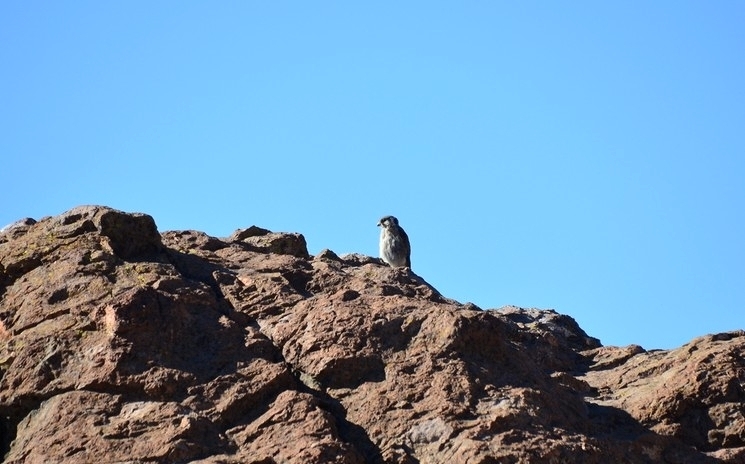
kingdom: Animalia
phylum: Chordata
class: Aves
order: Falconiformes
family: Falconidae
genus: Falco
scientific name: Falco sparverius
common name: American kestrel
